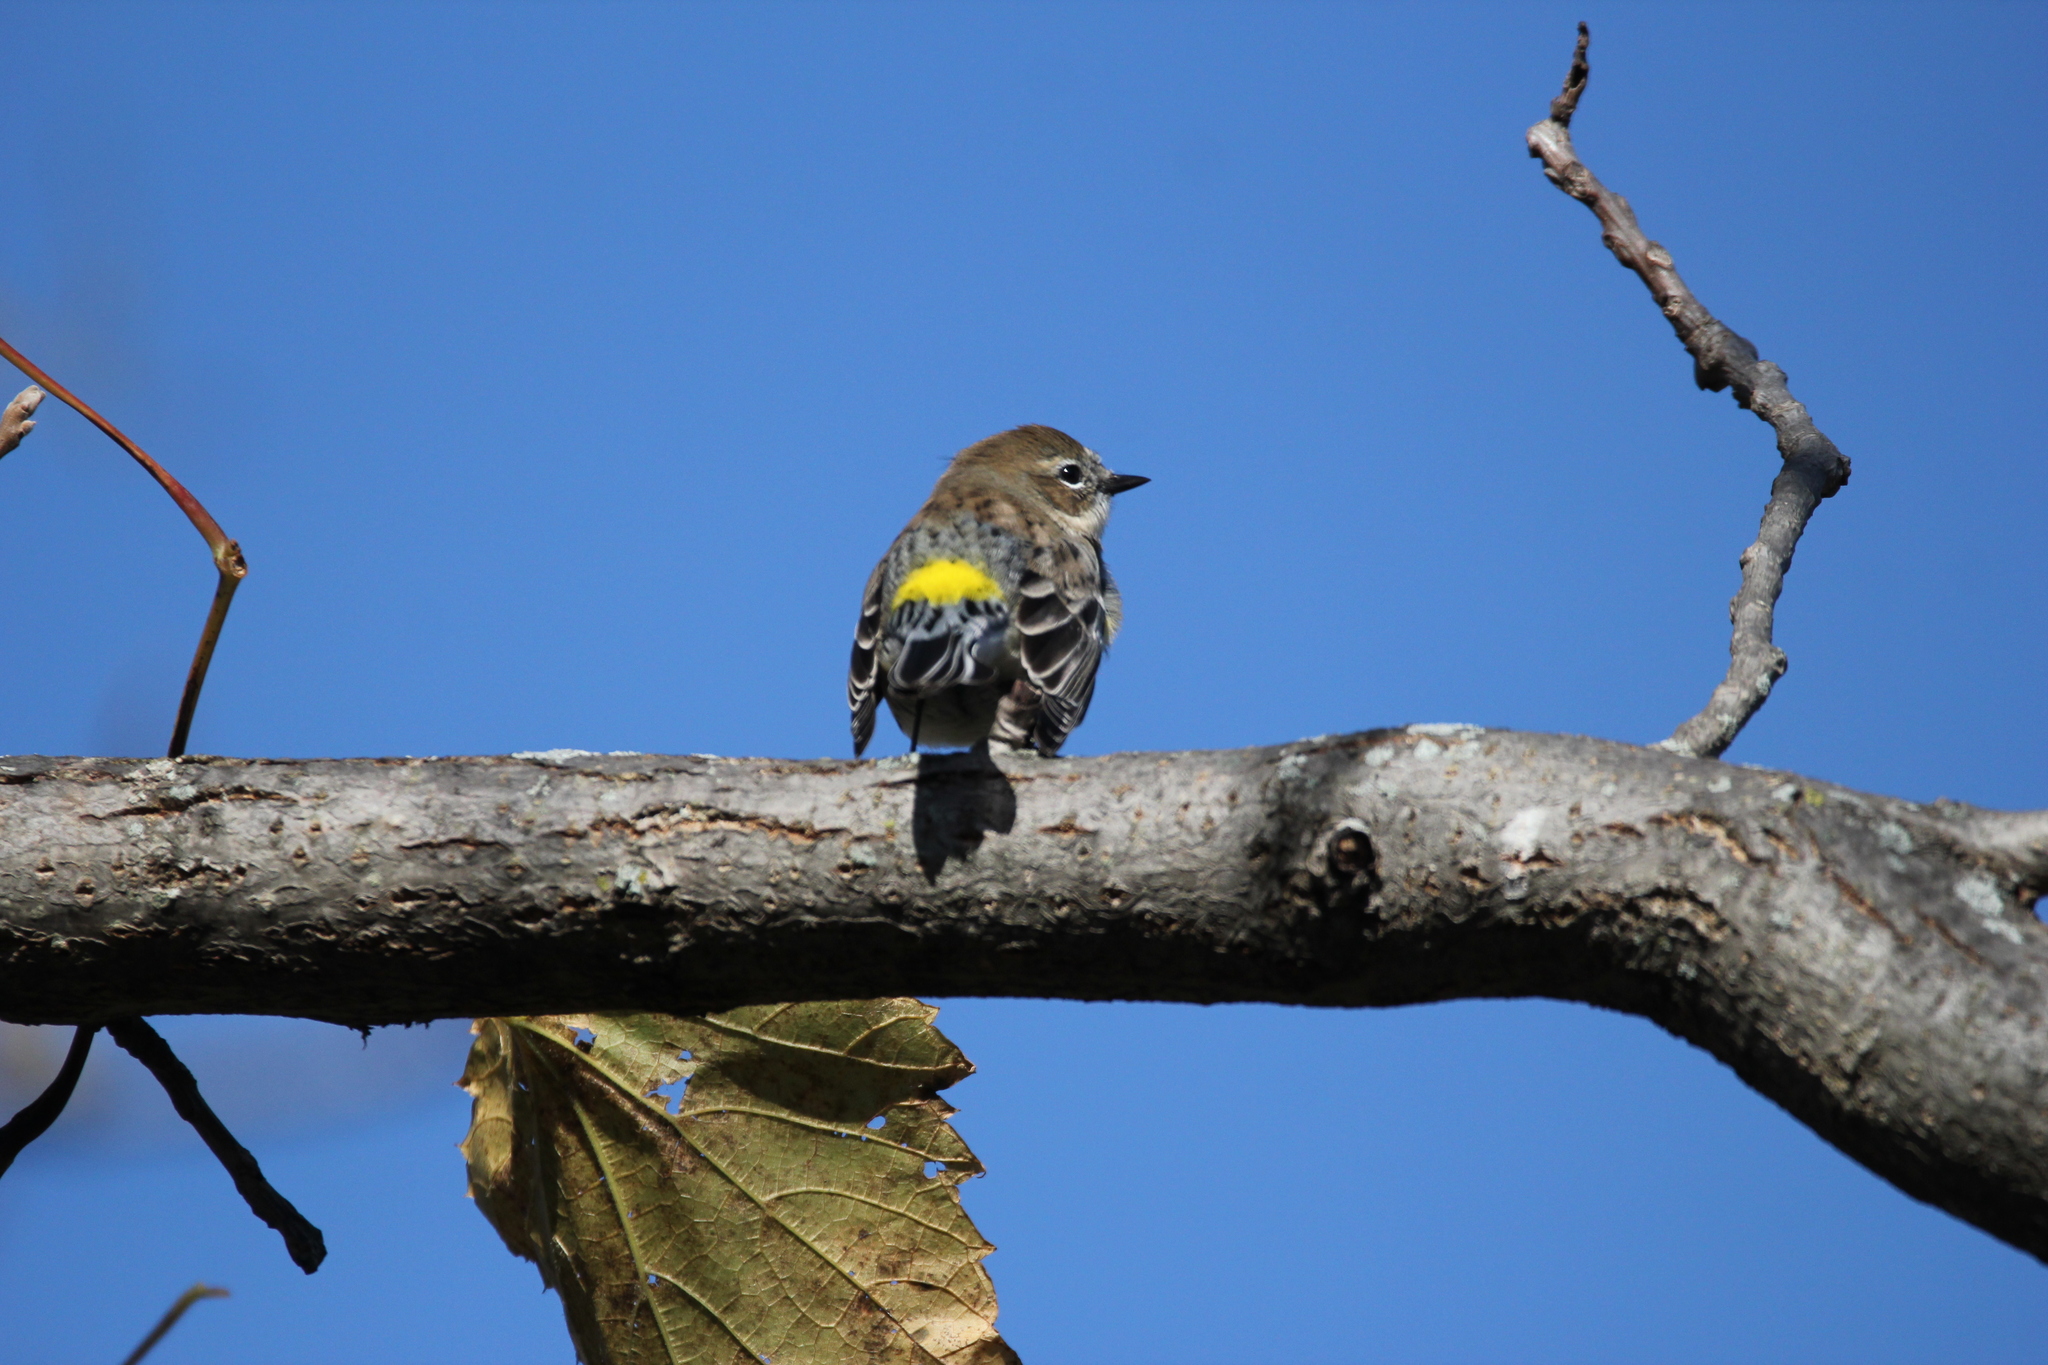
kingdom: Animalia
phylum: Chordata
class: Aves
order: Passeriformes
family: Parulidae
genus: Setophaga
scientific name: Setophaga coronata
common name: Myrtle warbler
